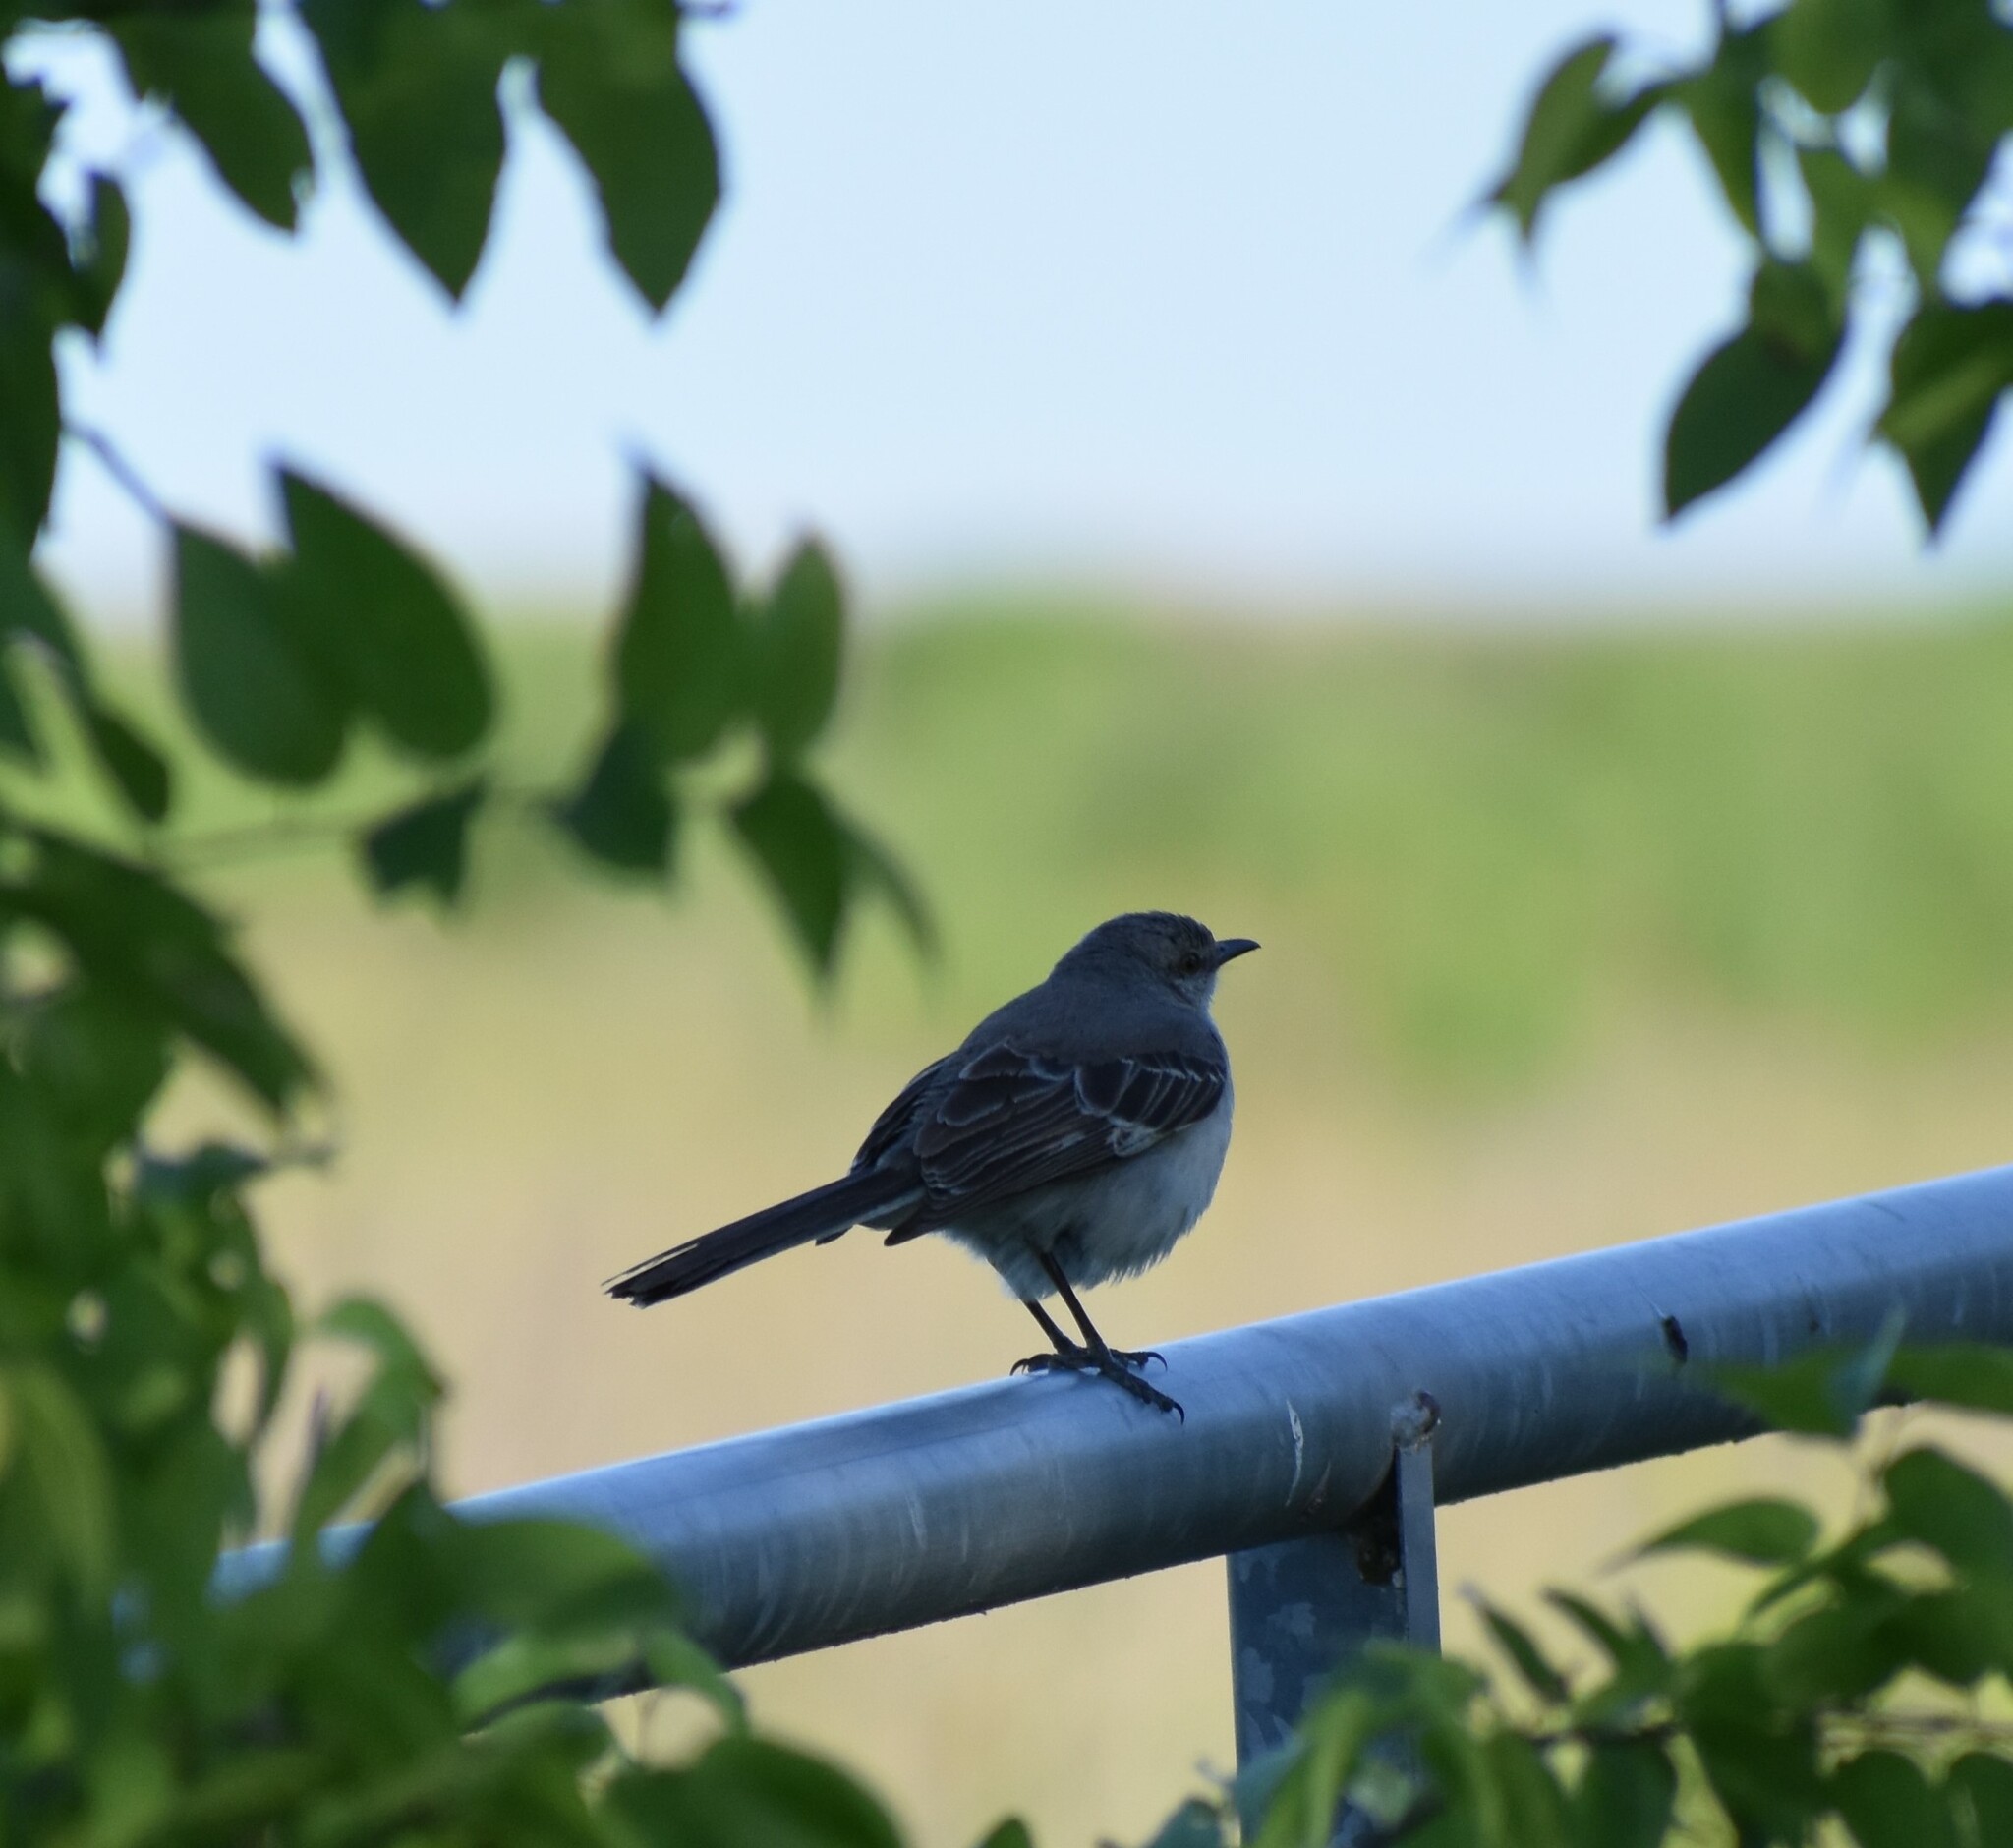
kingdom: Animalia
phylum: Chordata
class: Aves
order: Passeriformes
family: Mimidae
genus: Mimus
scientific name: Mimus polyglottos
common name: Northern mockingbird
